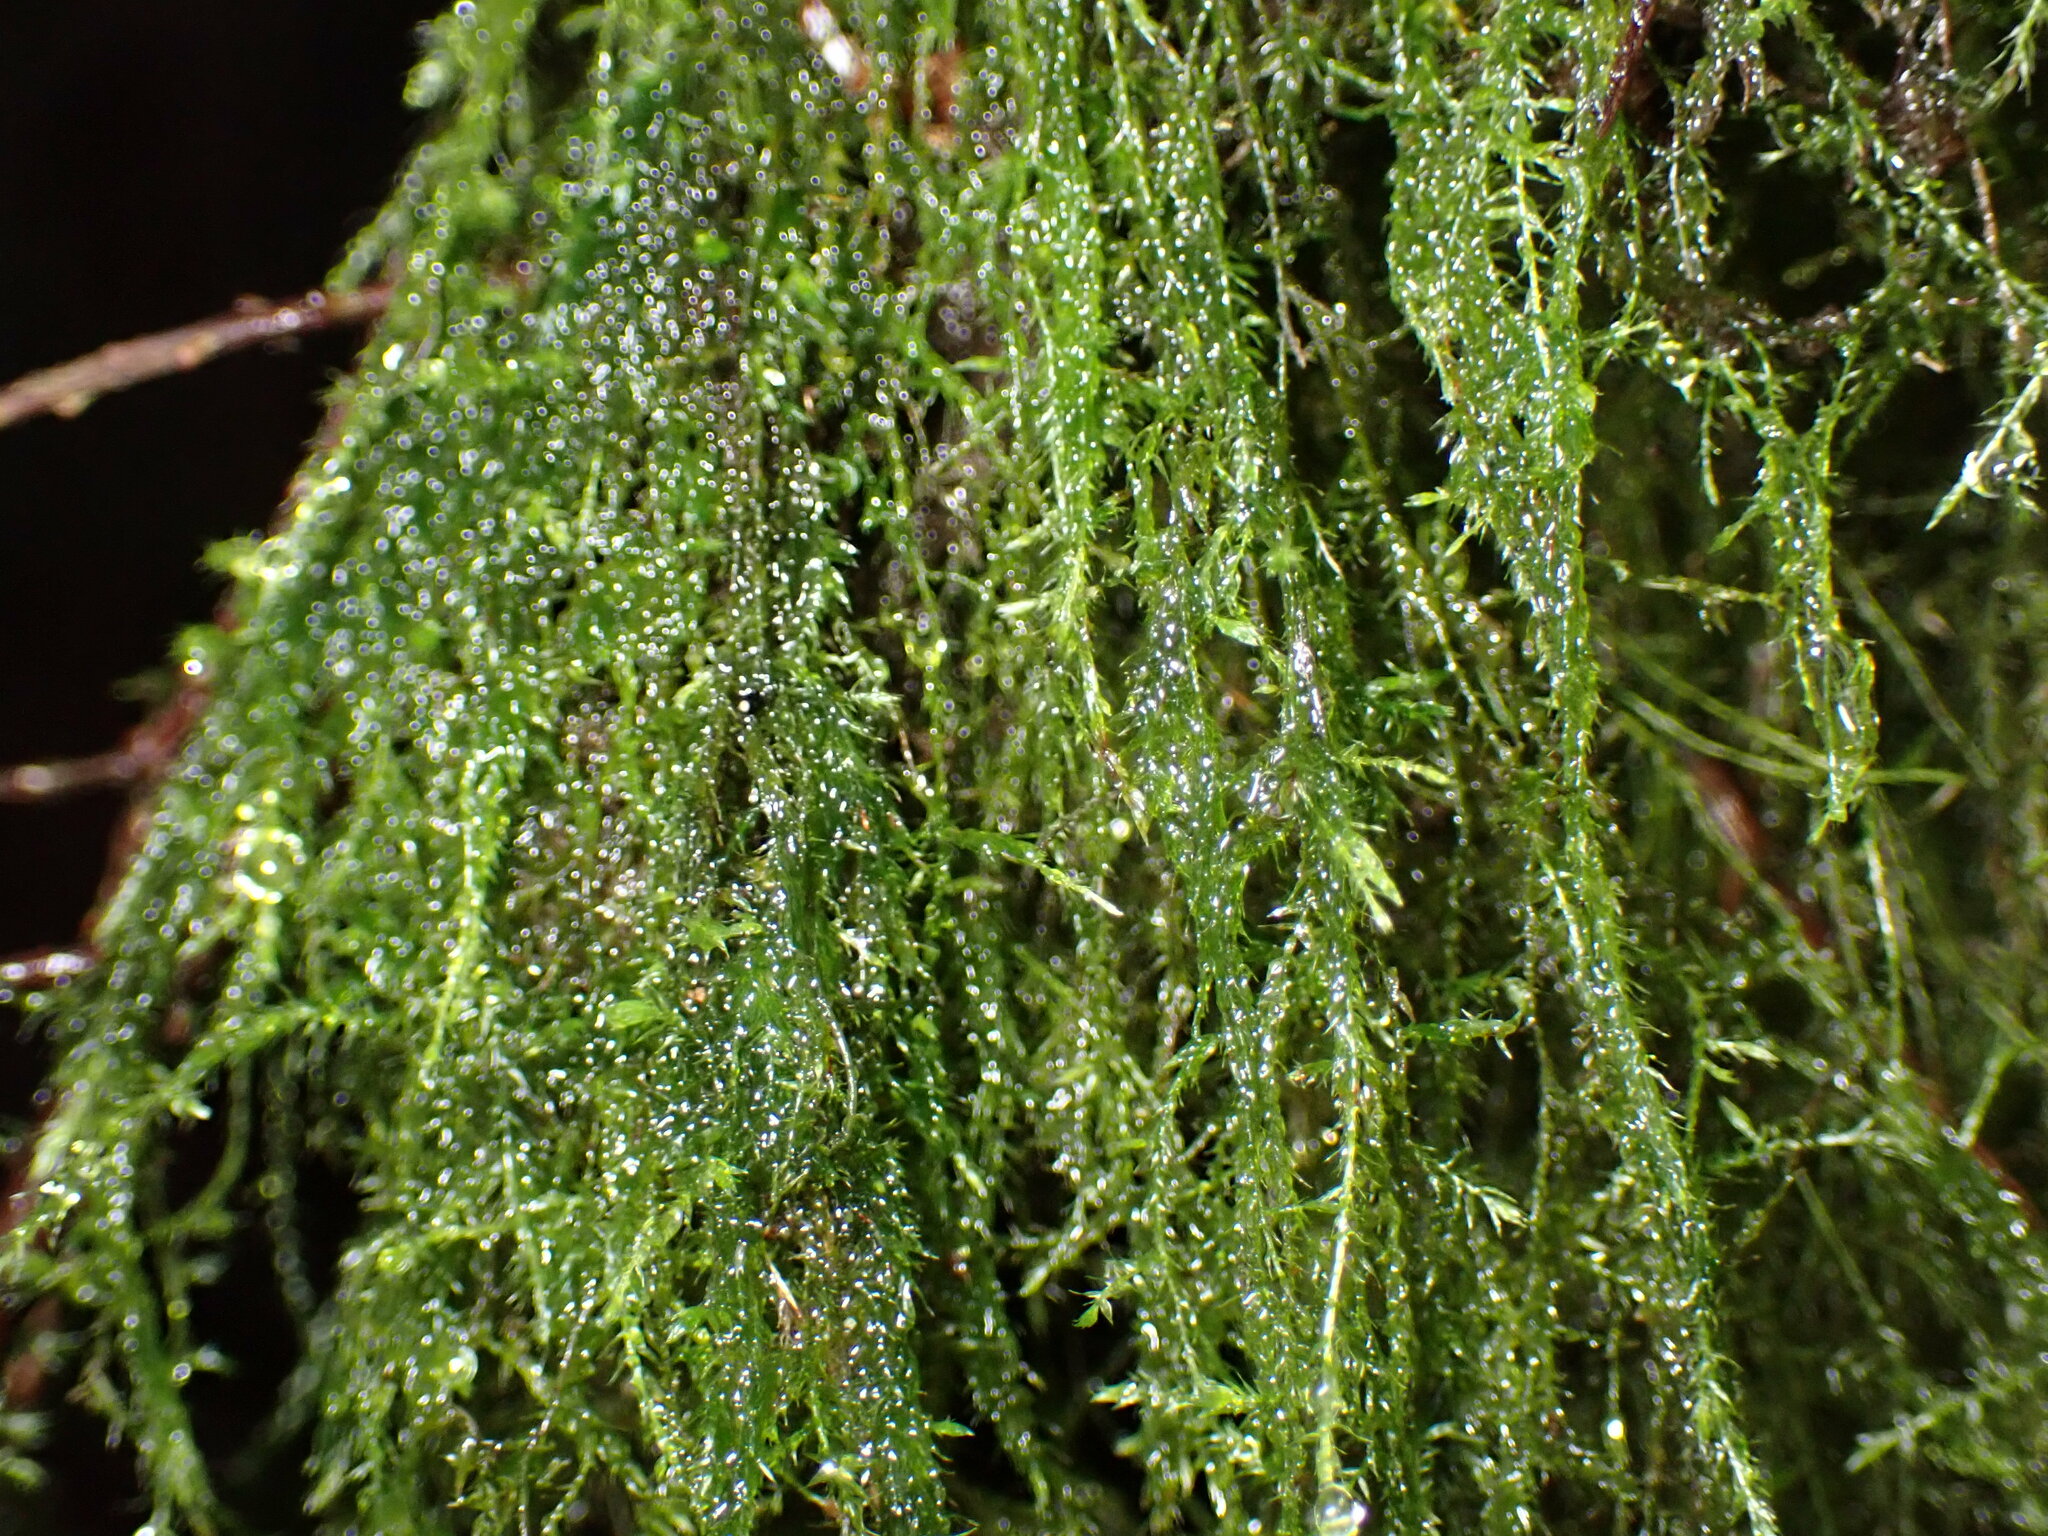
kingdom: Plantae
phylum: Bryophyta
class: Bryopsida
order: Hypnales
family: Lembophyllaceae
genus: Pseudisothecium
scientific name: Pseudisothecium stoloniferum
